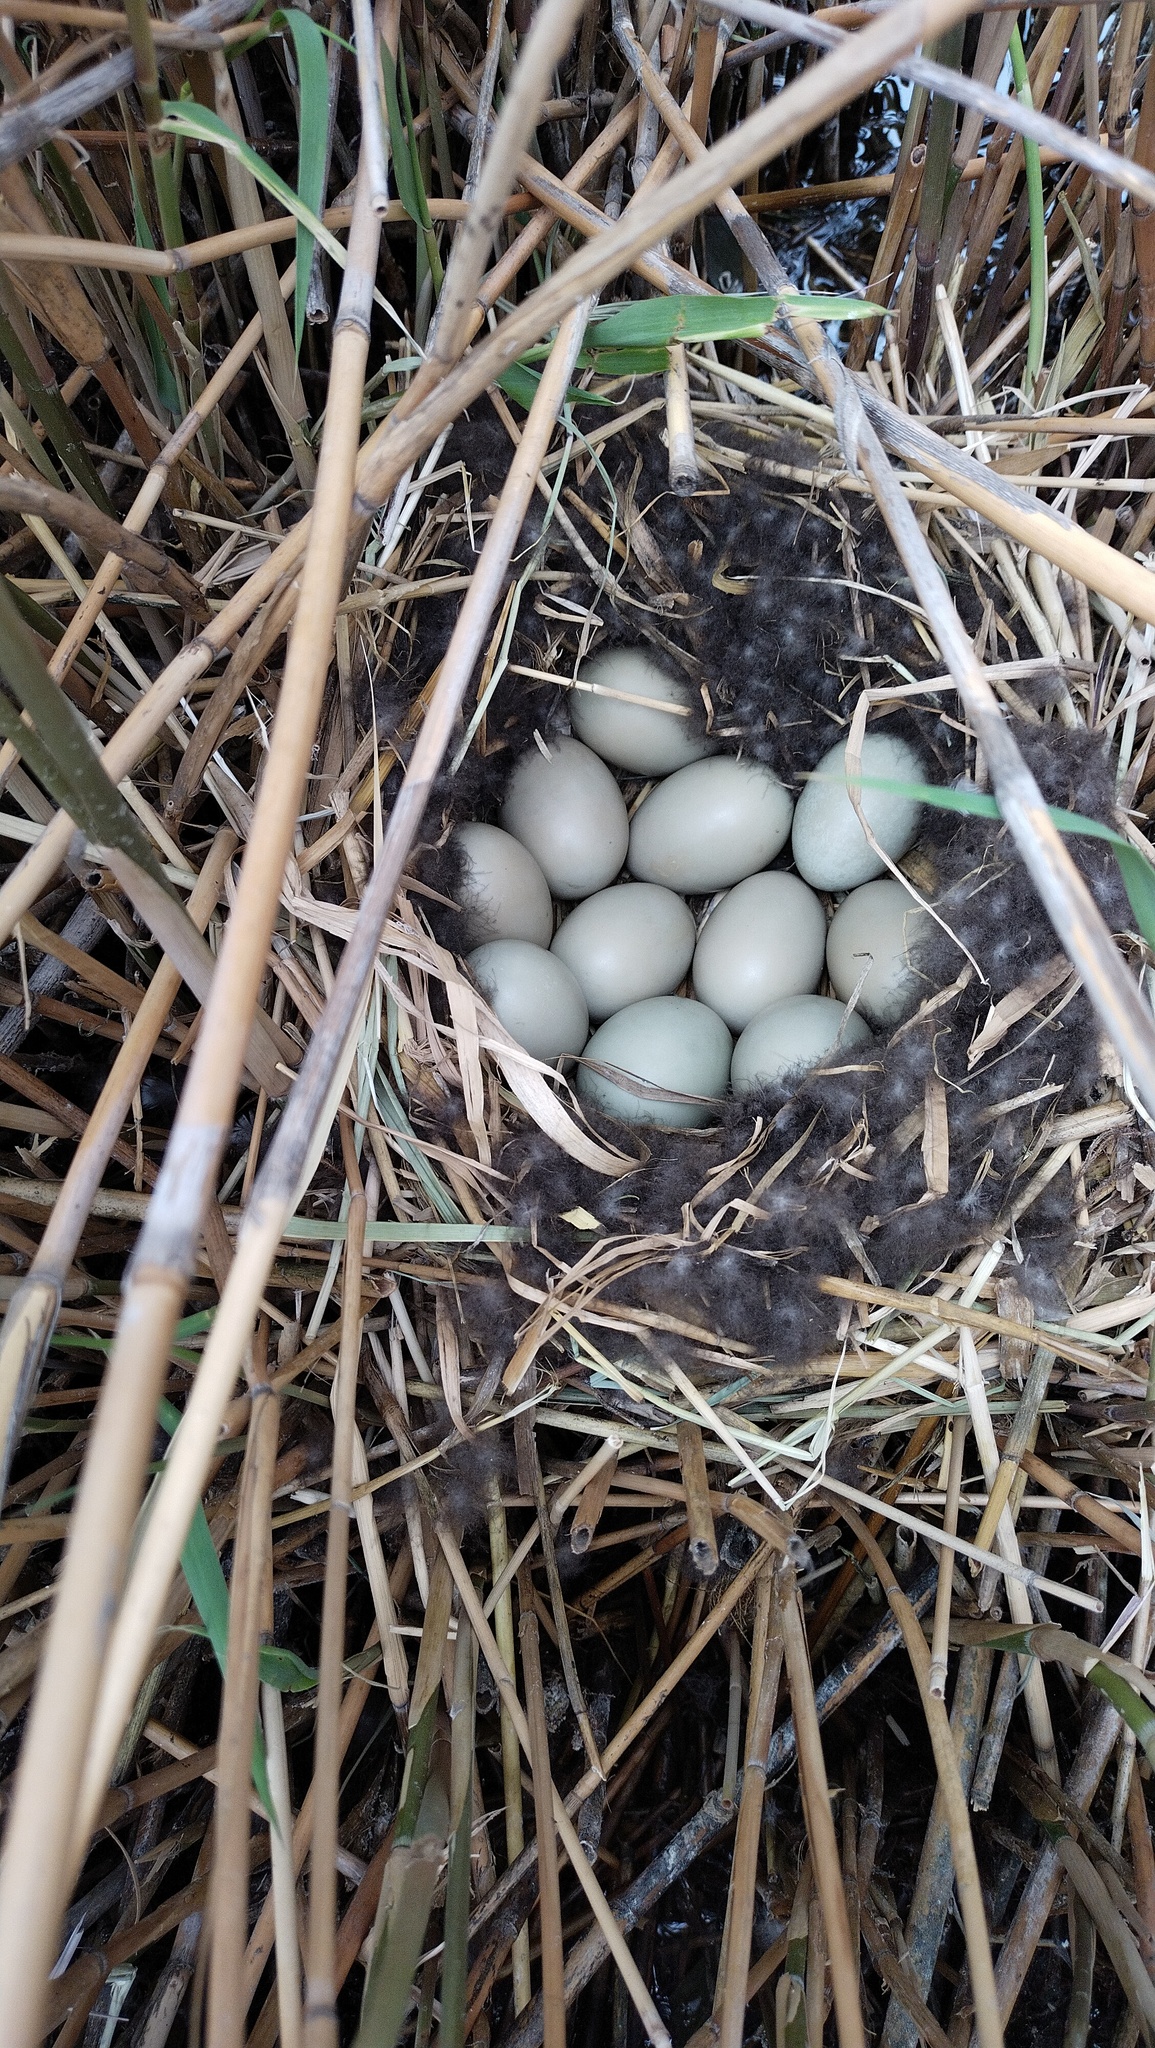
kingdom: Animalia
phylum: Chordata
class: Aves
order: Anseriformes
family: Anatidae
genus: Aythya
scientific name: Aythya ferina
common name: Common pochard
